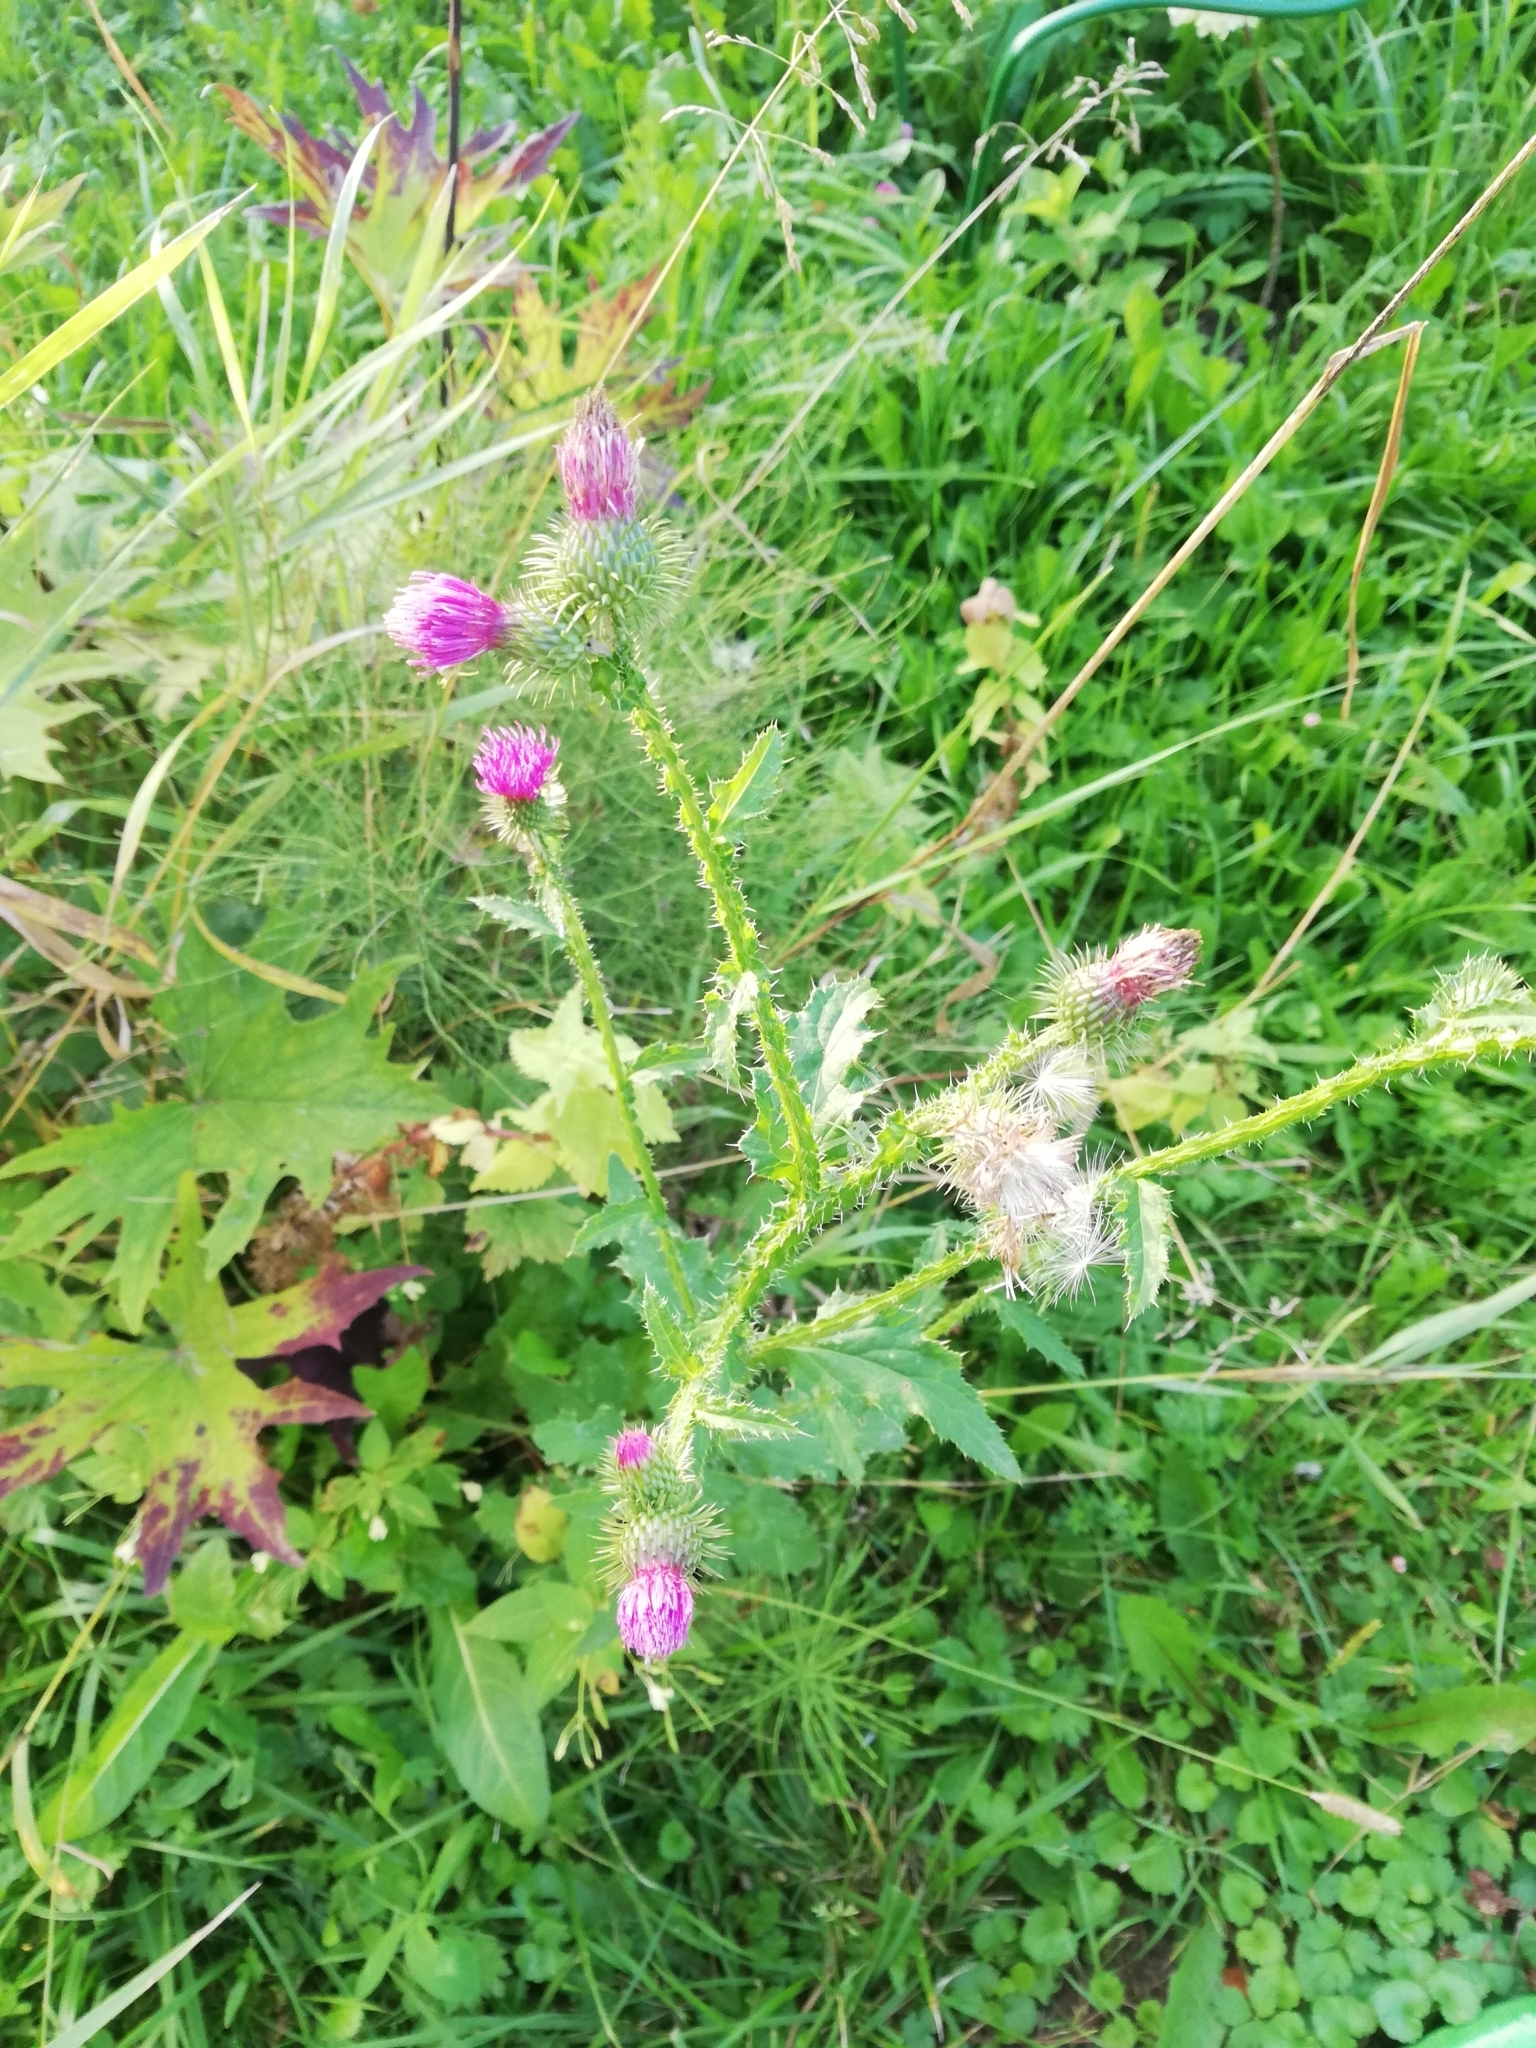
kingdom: Plantae
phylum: Tracheophyta
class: Magnoliopsida
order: Asterales
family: Asteraceae
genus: Carduus
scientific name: Carduus crispus
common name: Welted thistle
